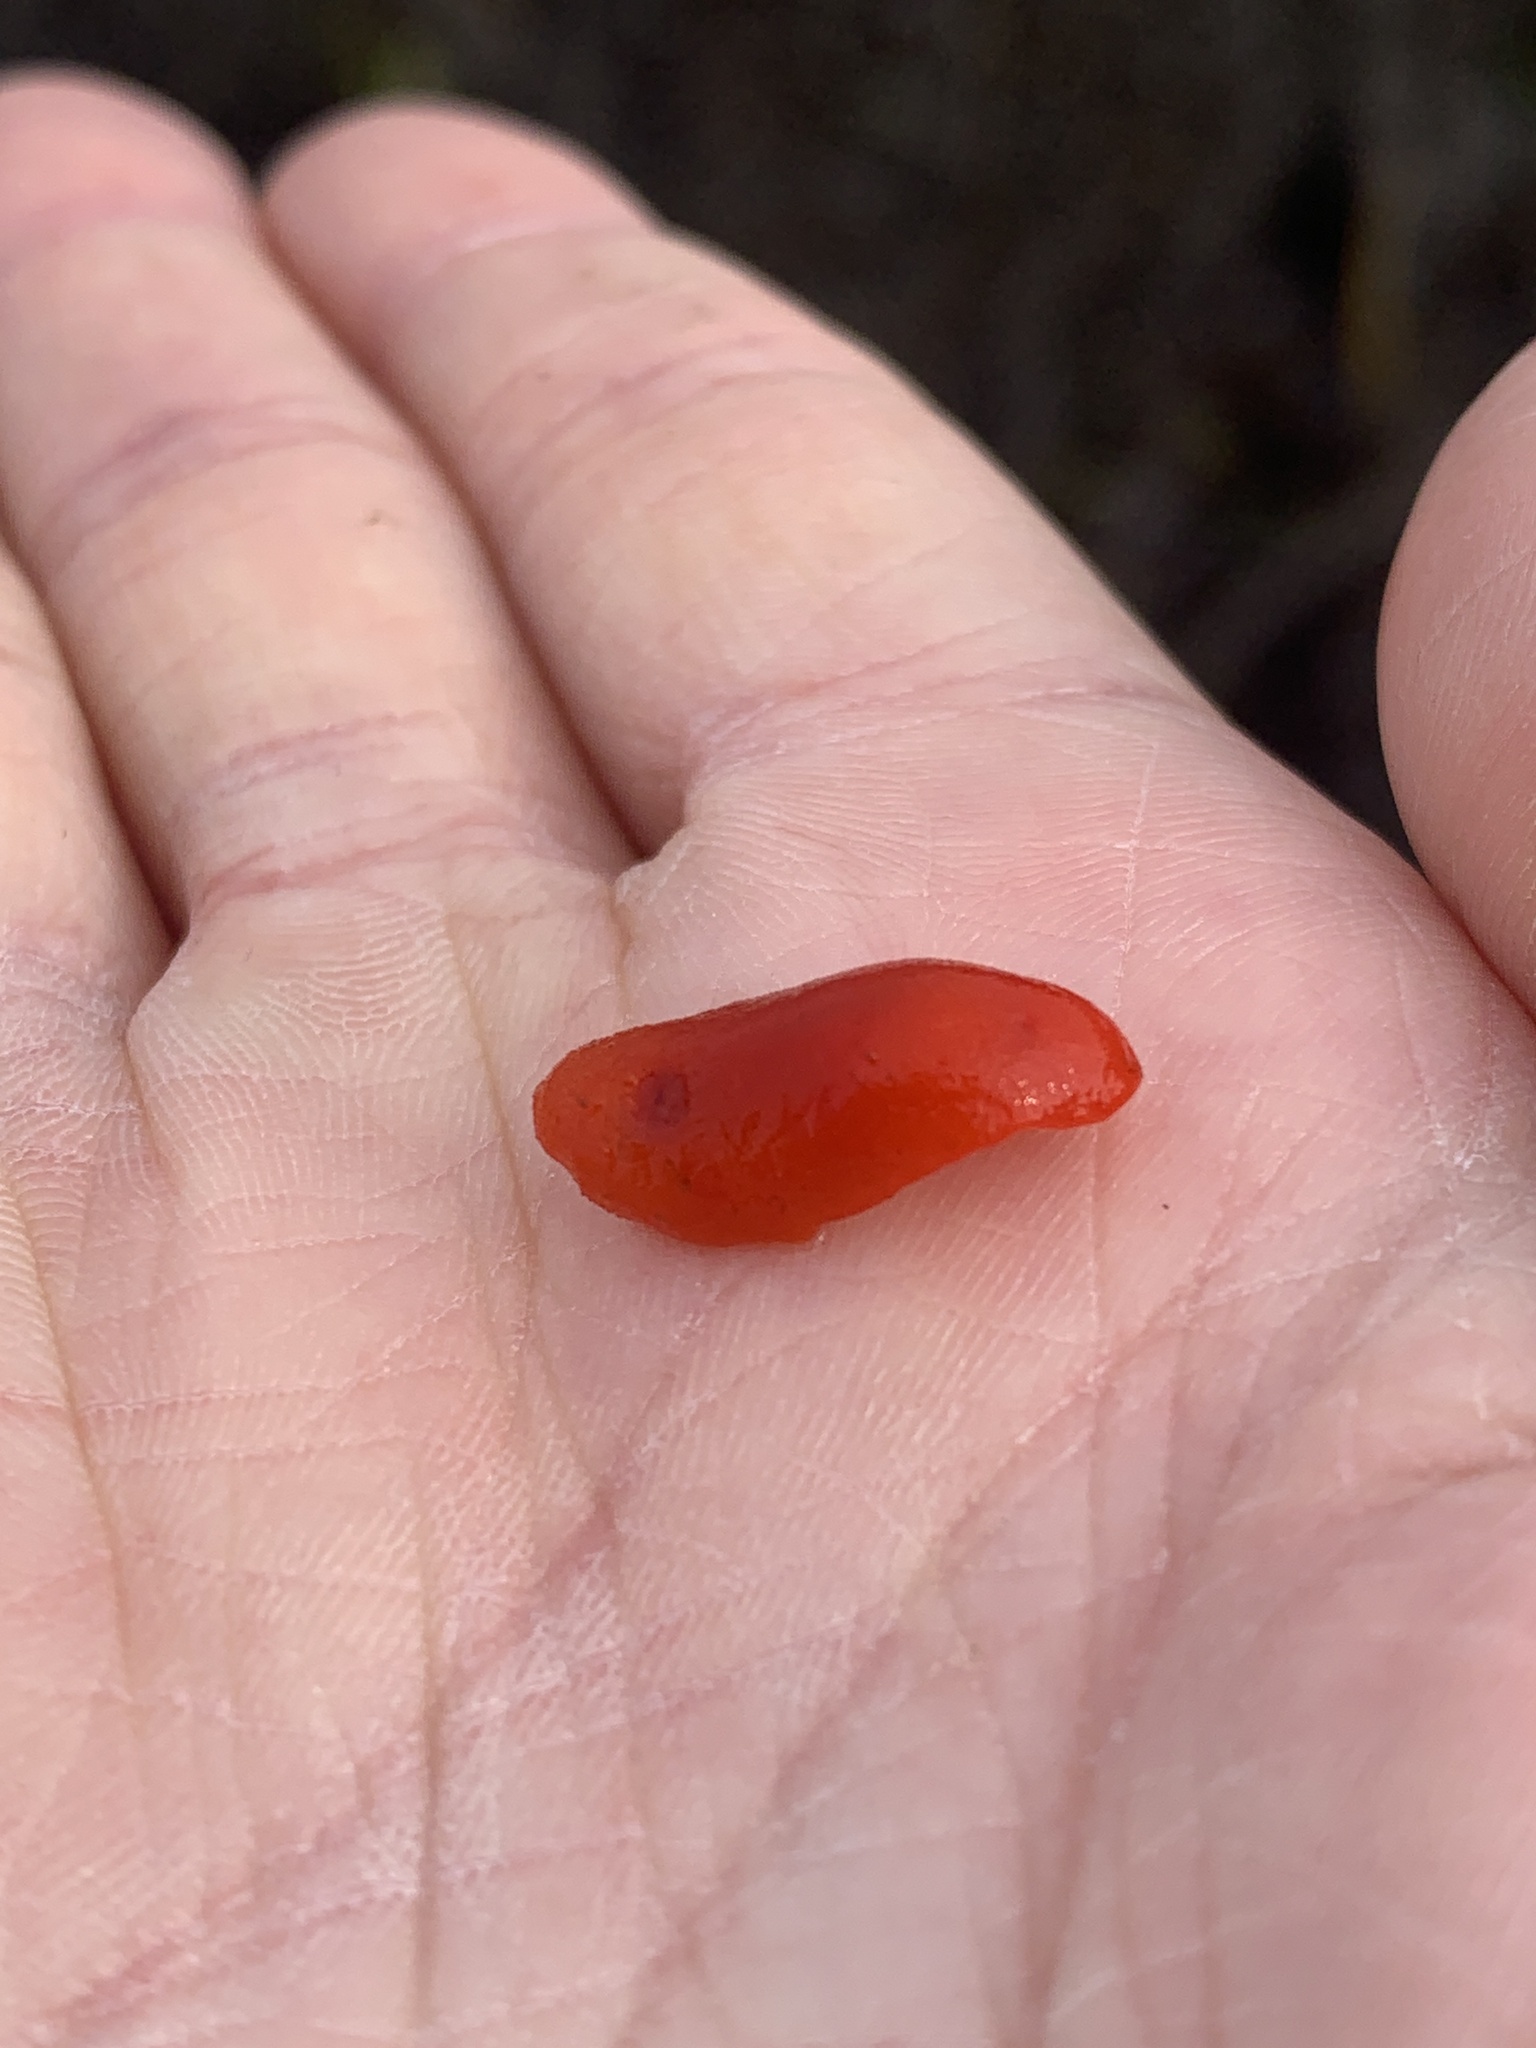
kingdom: Animalia
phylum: Mollusca
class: Gastropoda
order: Nudibranchia
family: Discodorididae
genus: Rostanga
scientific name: Rostanga pulchra
